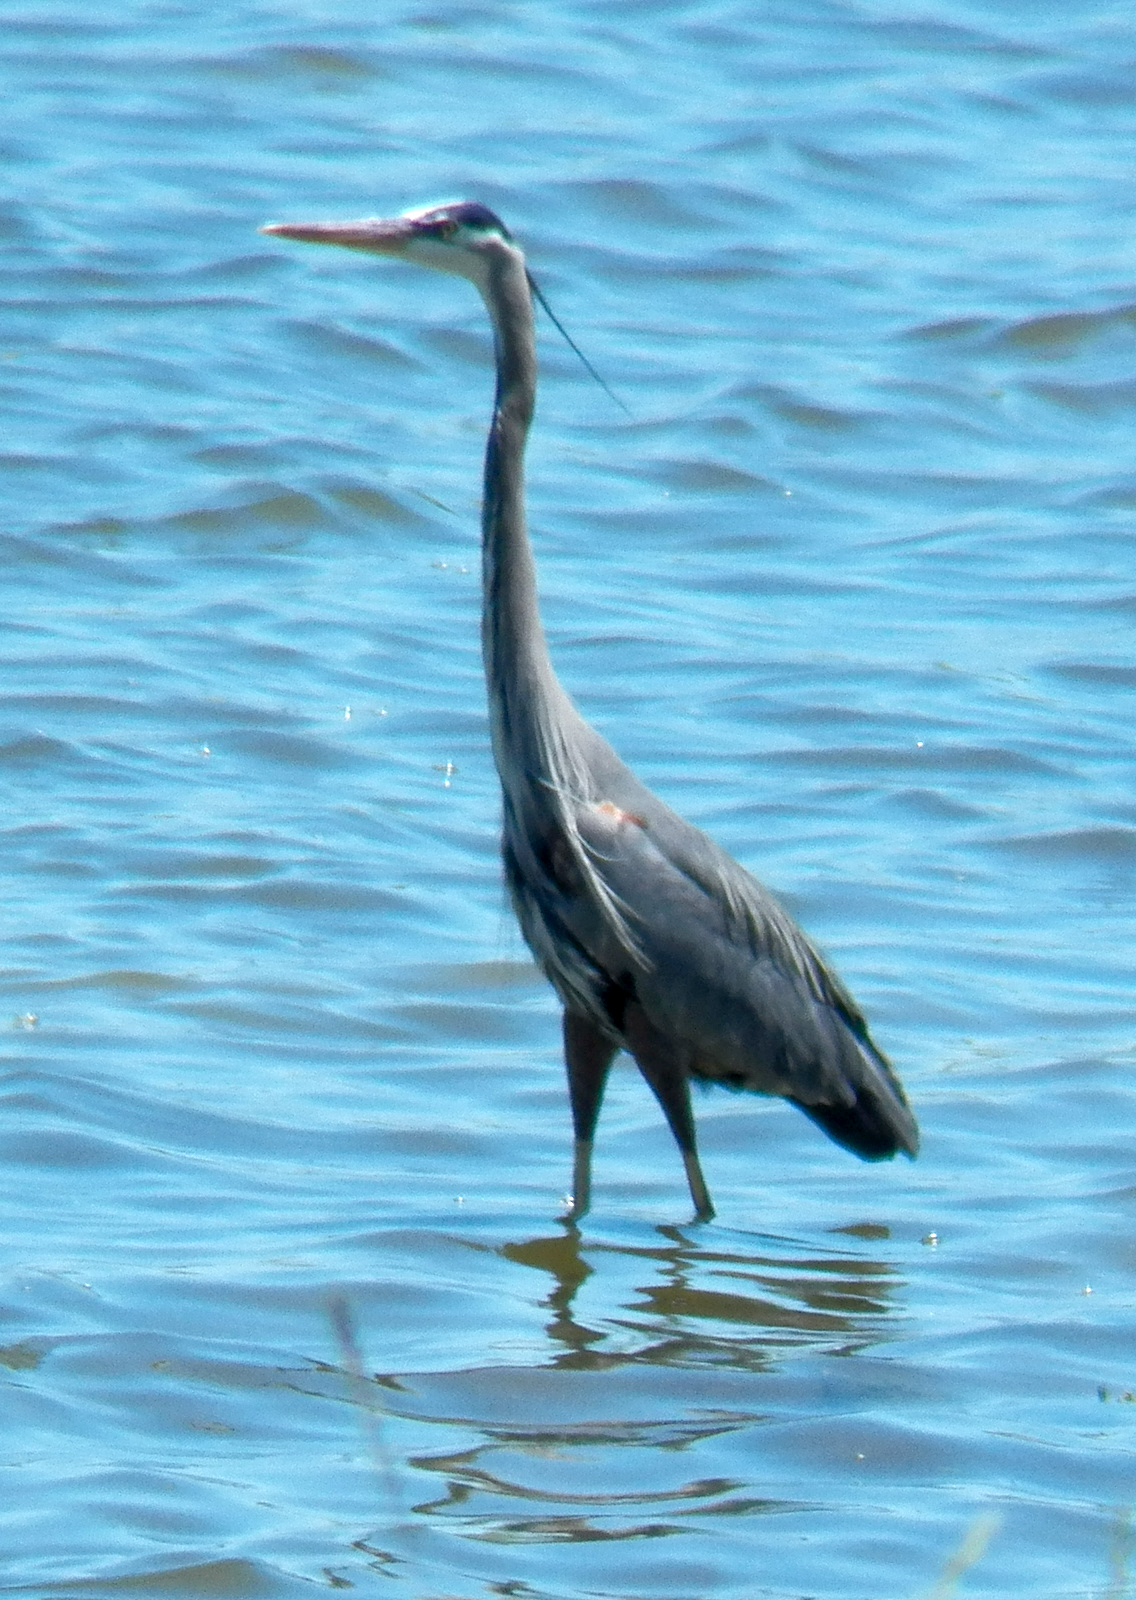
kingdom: Animalia
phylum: Chordata
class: Aves
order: Pelecaniformes
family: Ardeidae
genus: Ardea
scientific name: Ardea herodias
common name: Great blue heron
